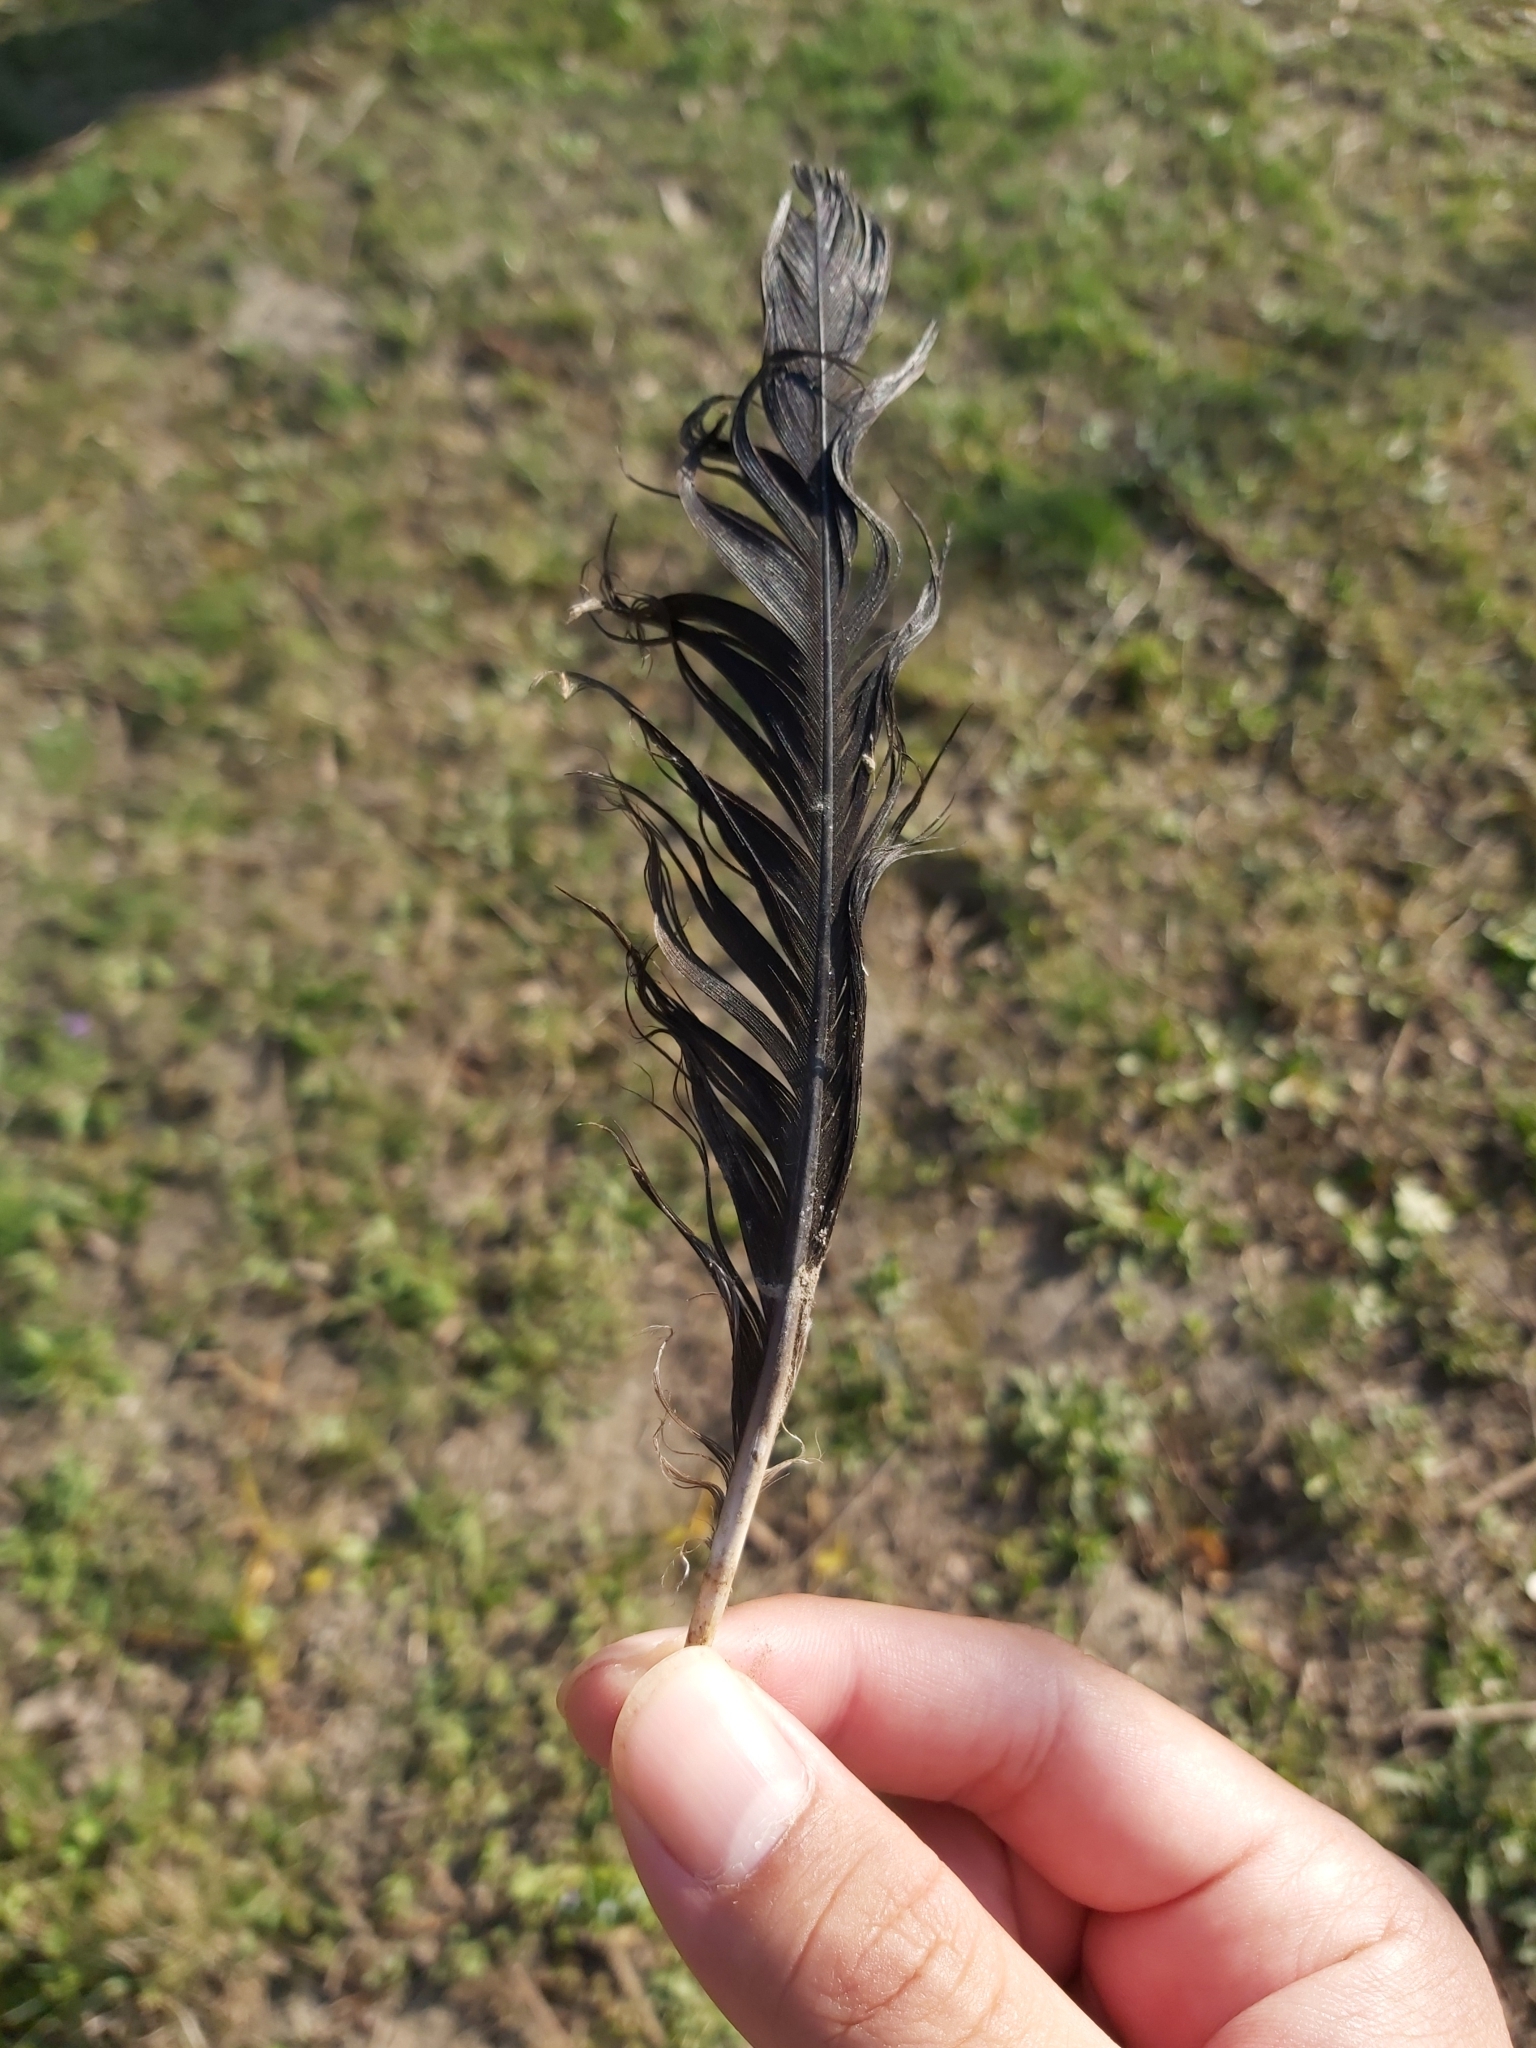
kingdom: Animalia
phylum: Chordata
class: Aves
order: Passeriformes
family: Corvidae
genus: Corvus
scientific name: Corvus cornix
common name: Hooded crow
